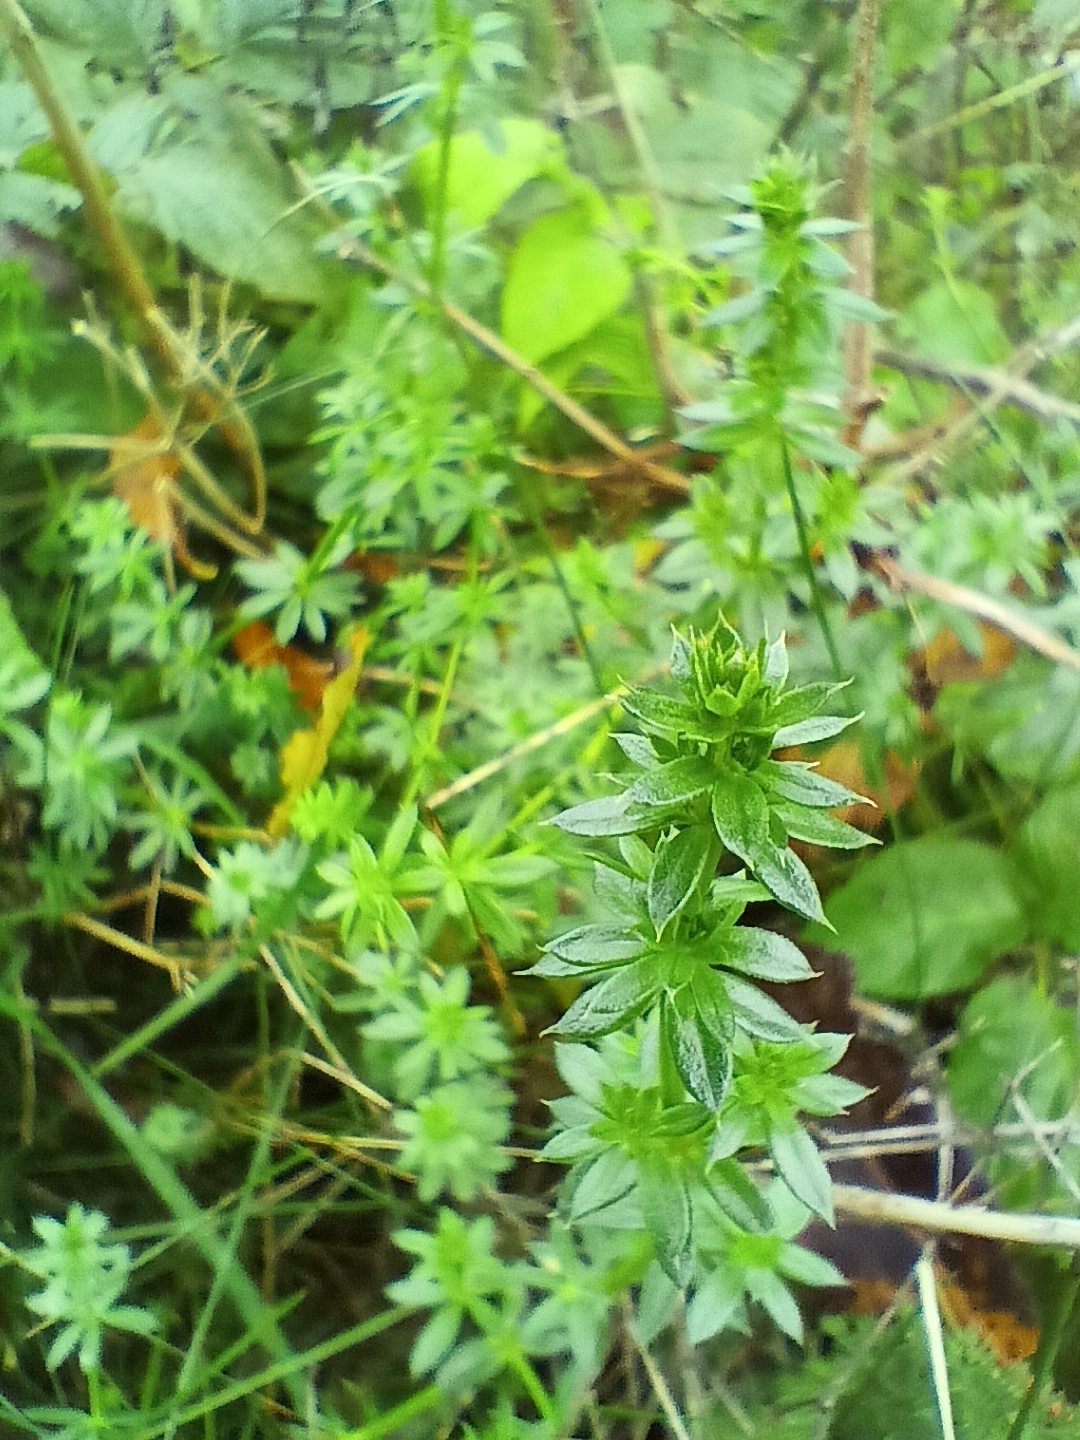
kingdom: Plantae
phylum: Tracheophyta
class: Magnoliopsida
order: Gentianales
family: Rubiaceae
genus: Galium
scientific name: Galium mollugo
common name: Hedge bedstraw
